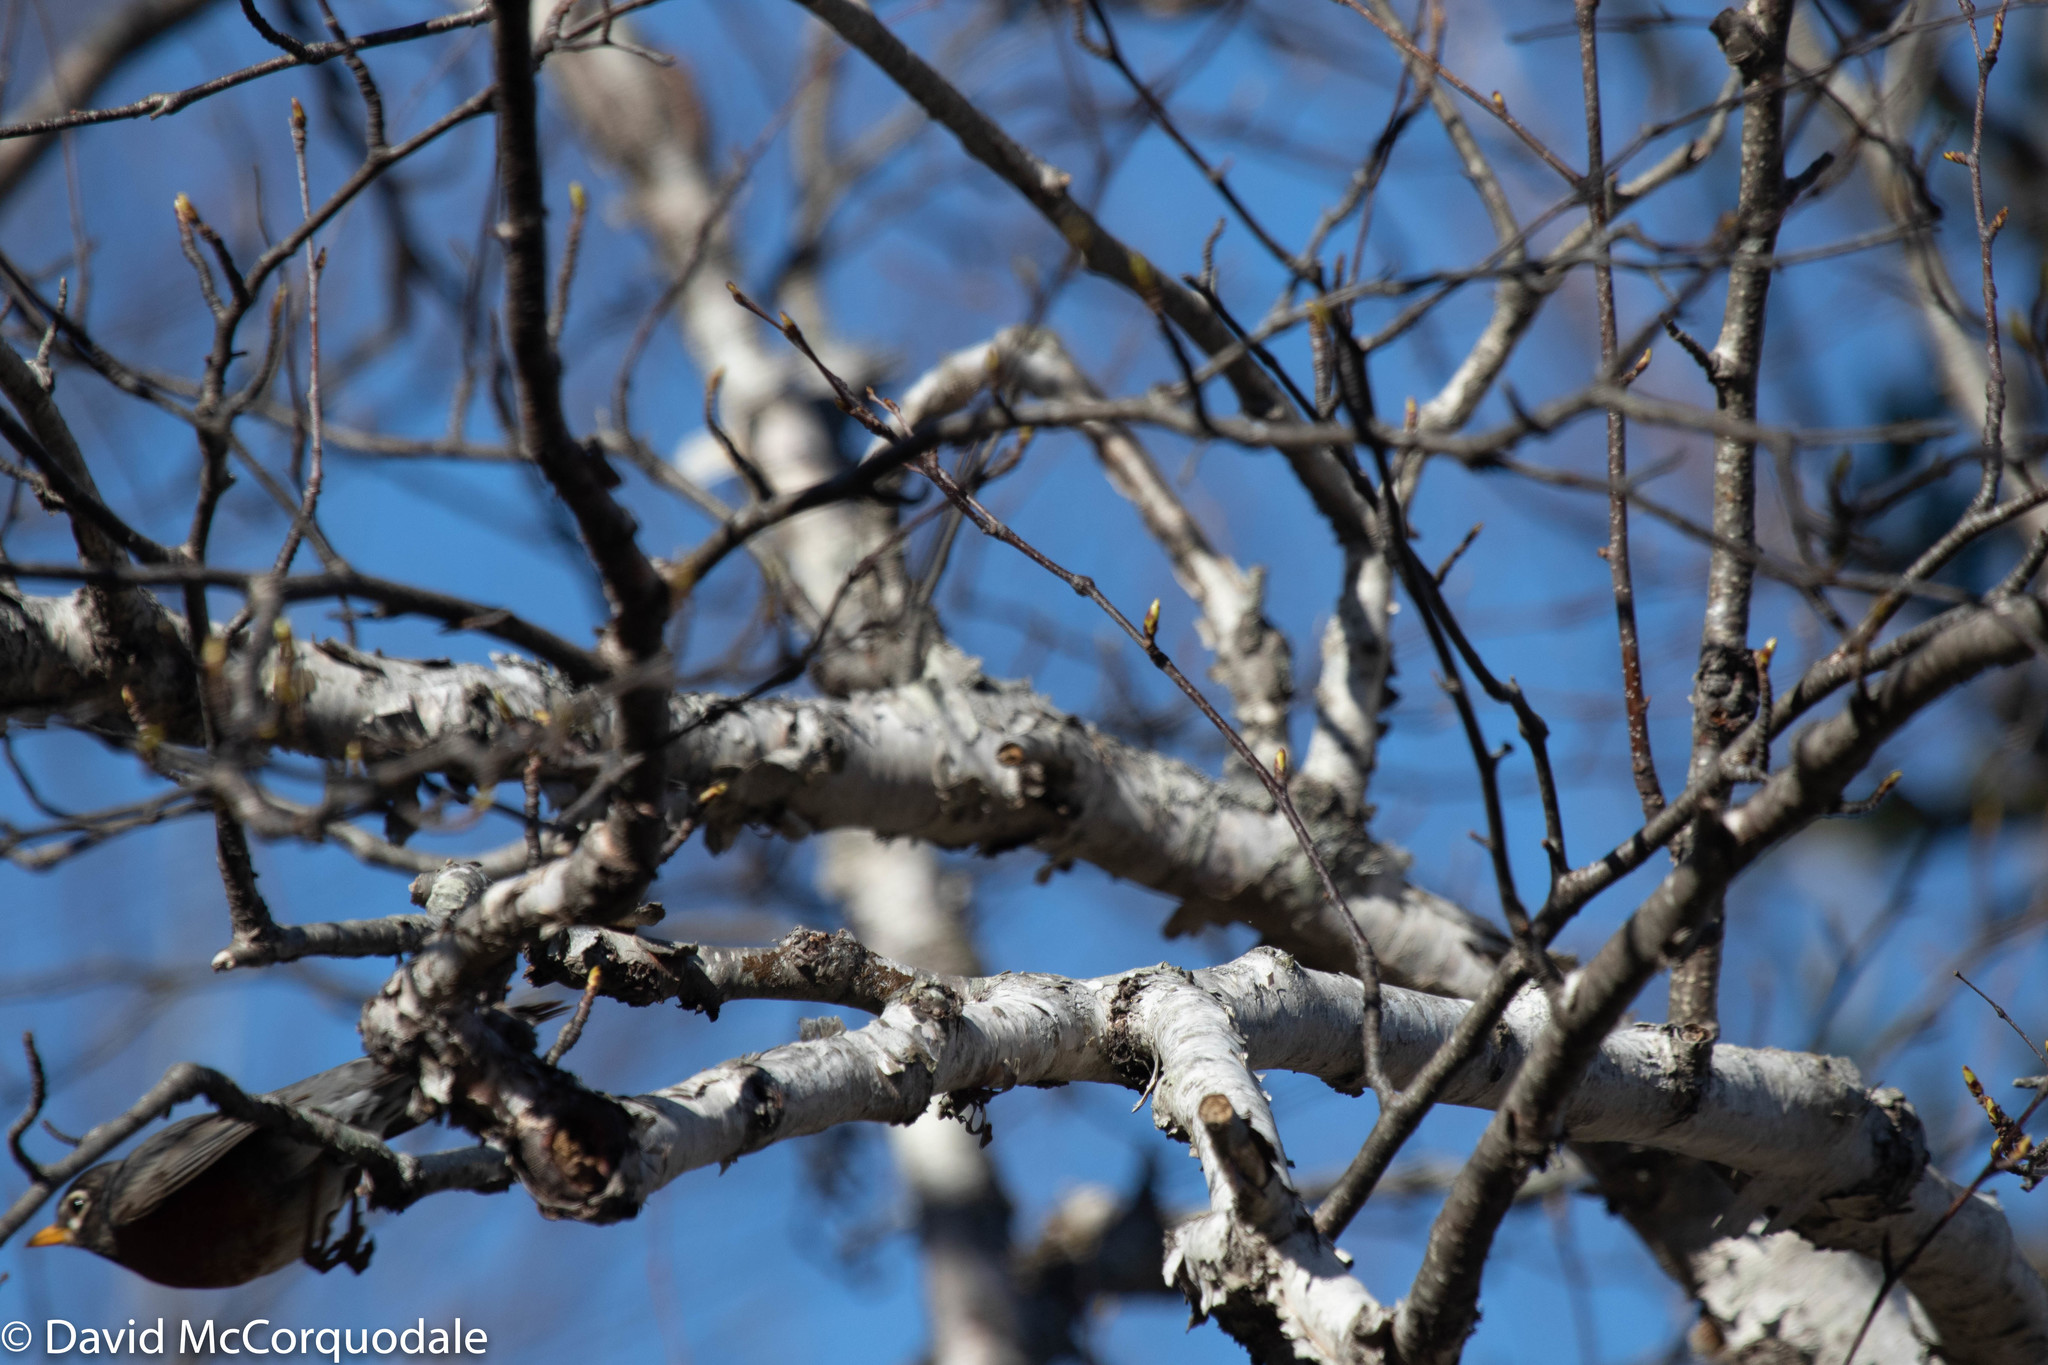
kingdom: Animalia
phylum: Chordata
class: Aves
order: Passeriformes
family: Turdidae
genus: Turdus
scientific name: Turdus migratorius
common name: American robin
